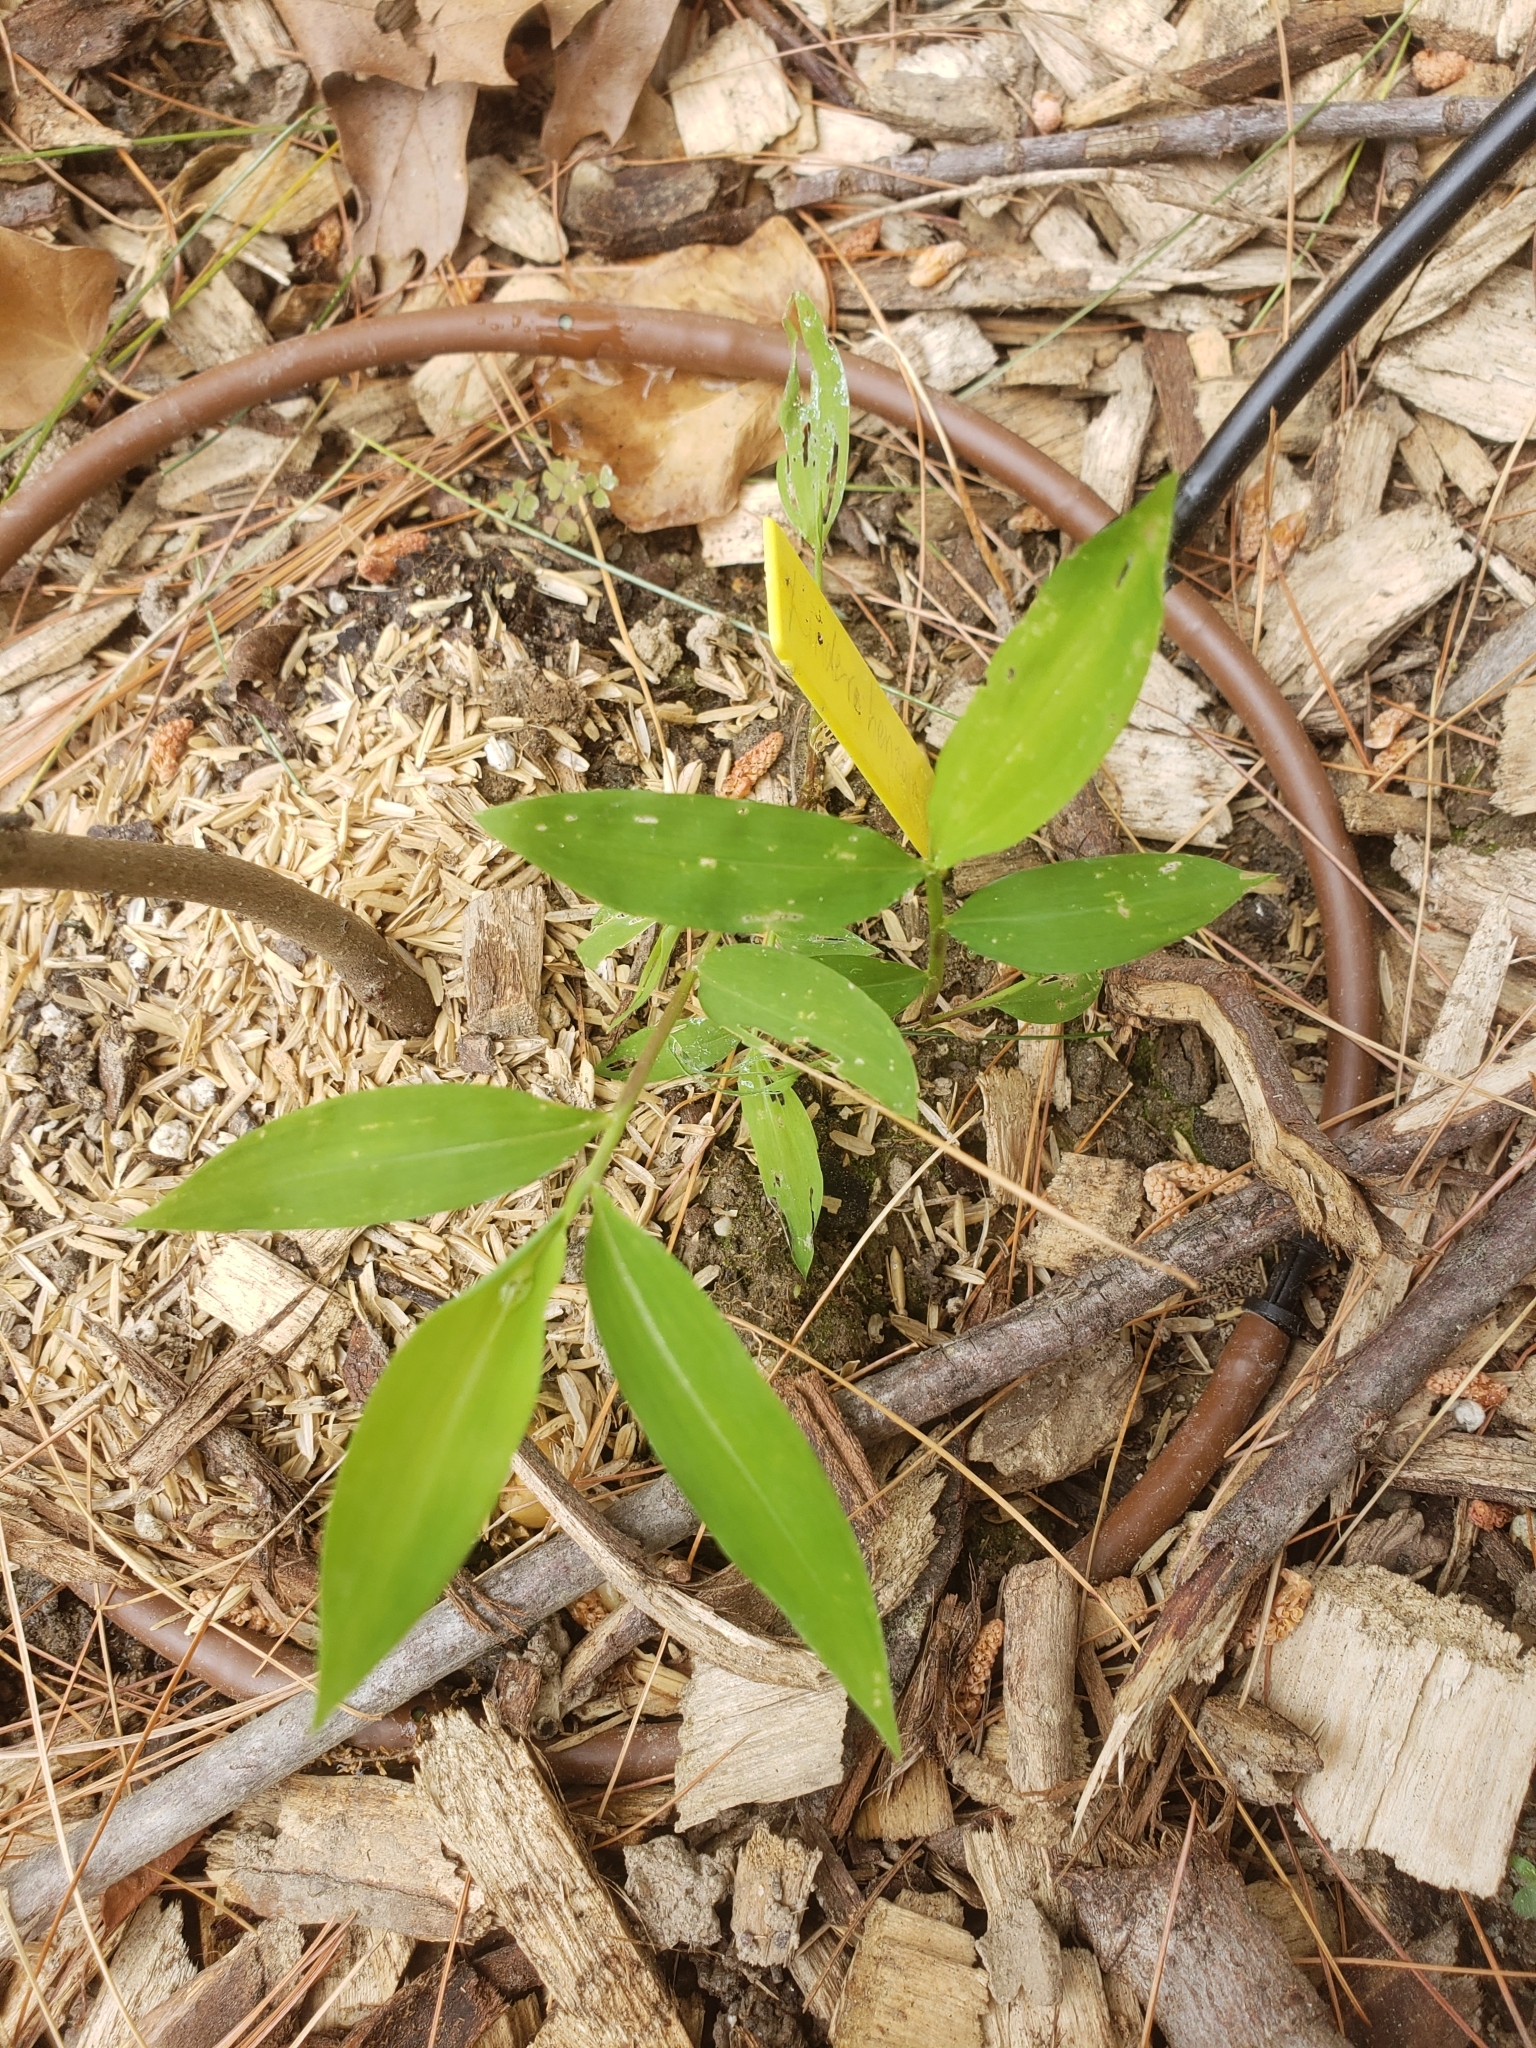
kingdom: Plantae
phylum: Tracheophyta
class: Liliopsida
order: Poales
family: Poaceae
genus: Microstegium
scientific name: Microstegium vimineum
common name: Japanese stiltgrass
